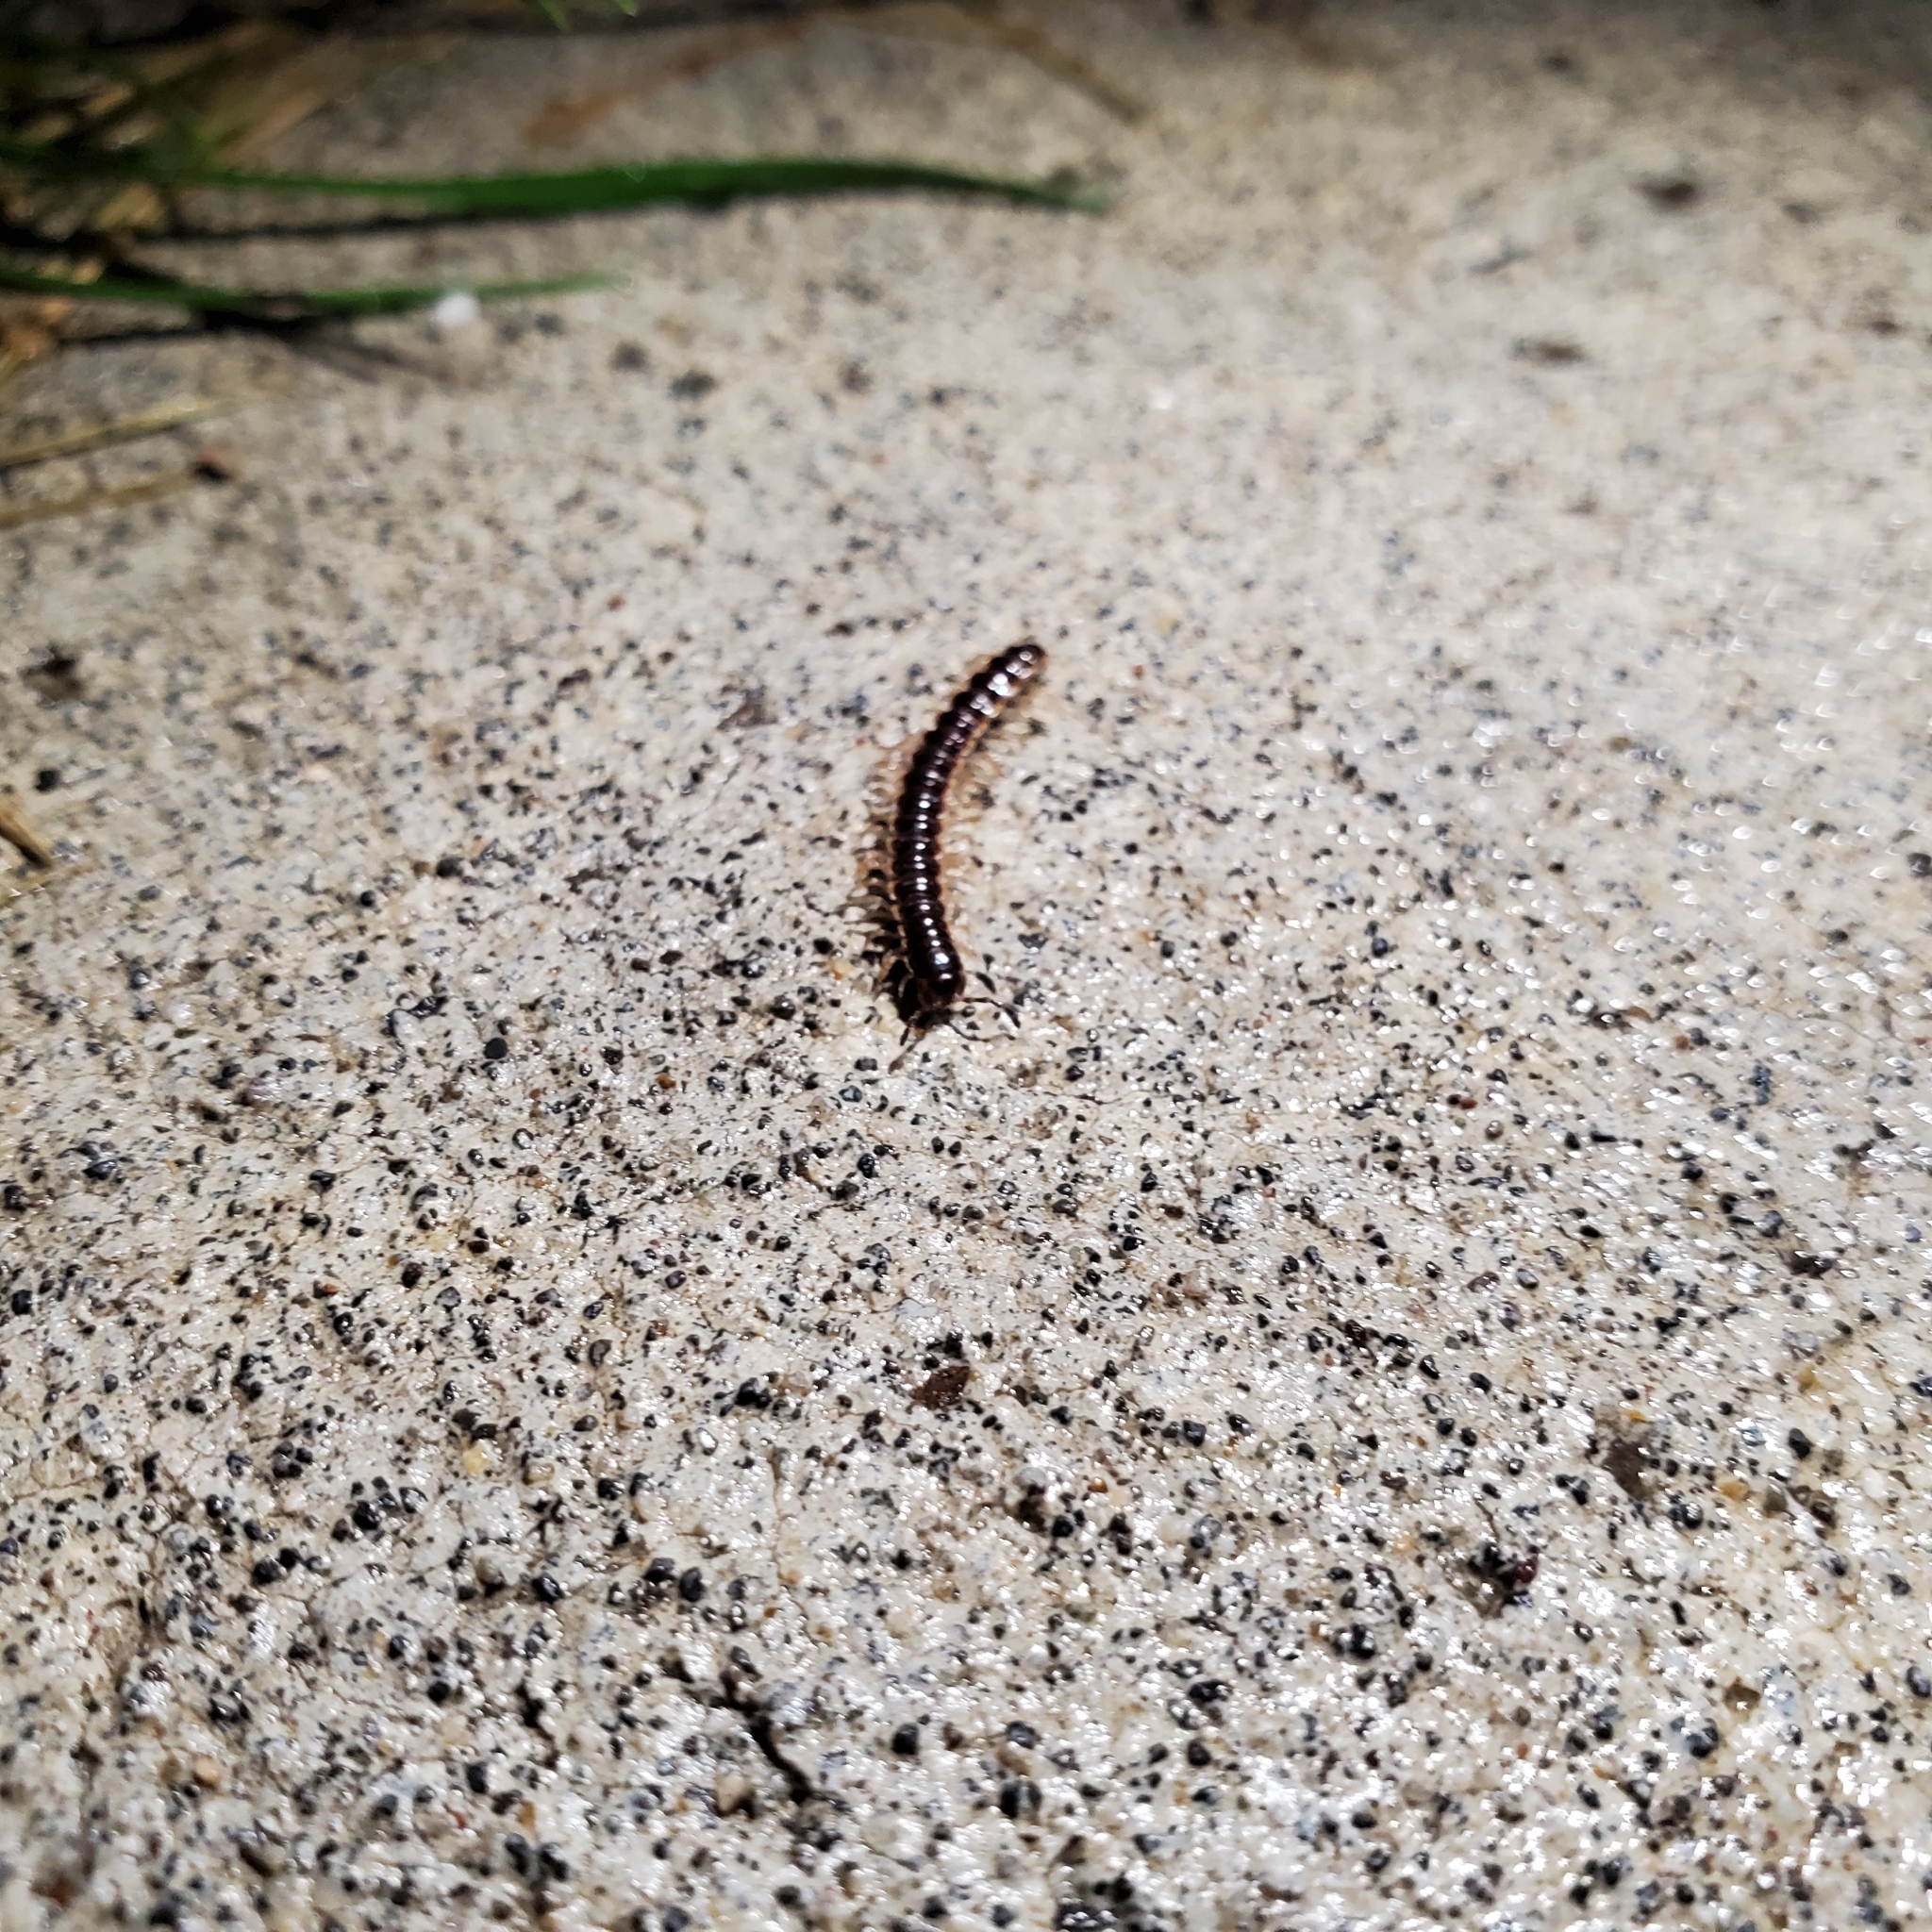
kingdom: Animalia
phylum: Arthropoda
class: Diplopoda
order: Polydesmida
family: Paradoxosomatidae
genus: Oxidus
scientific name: Oxidus gracilis
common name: Greenhouse millipede
